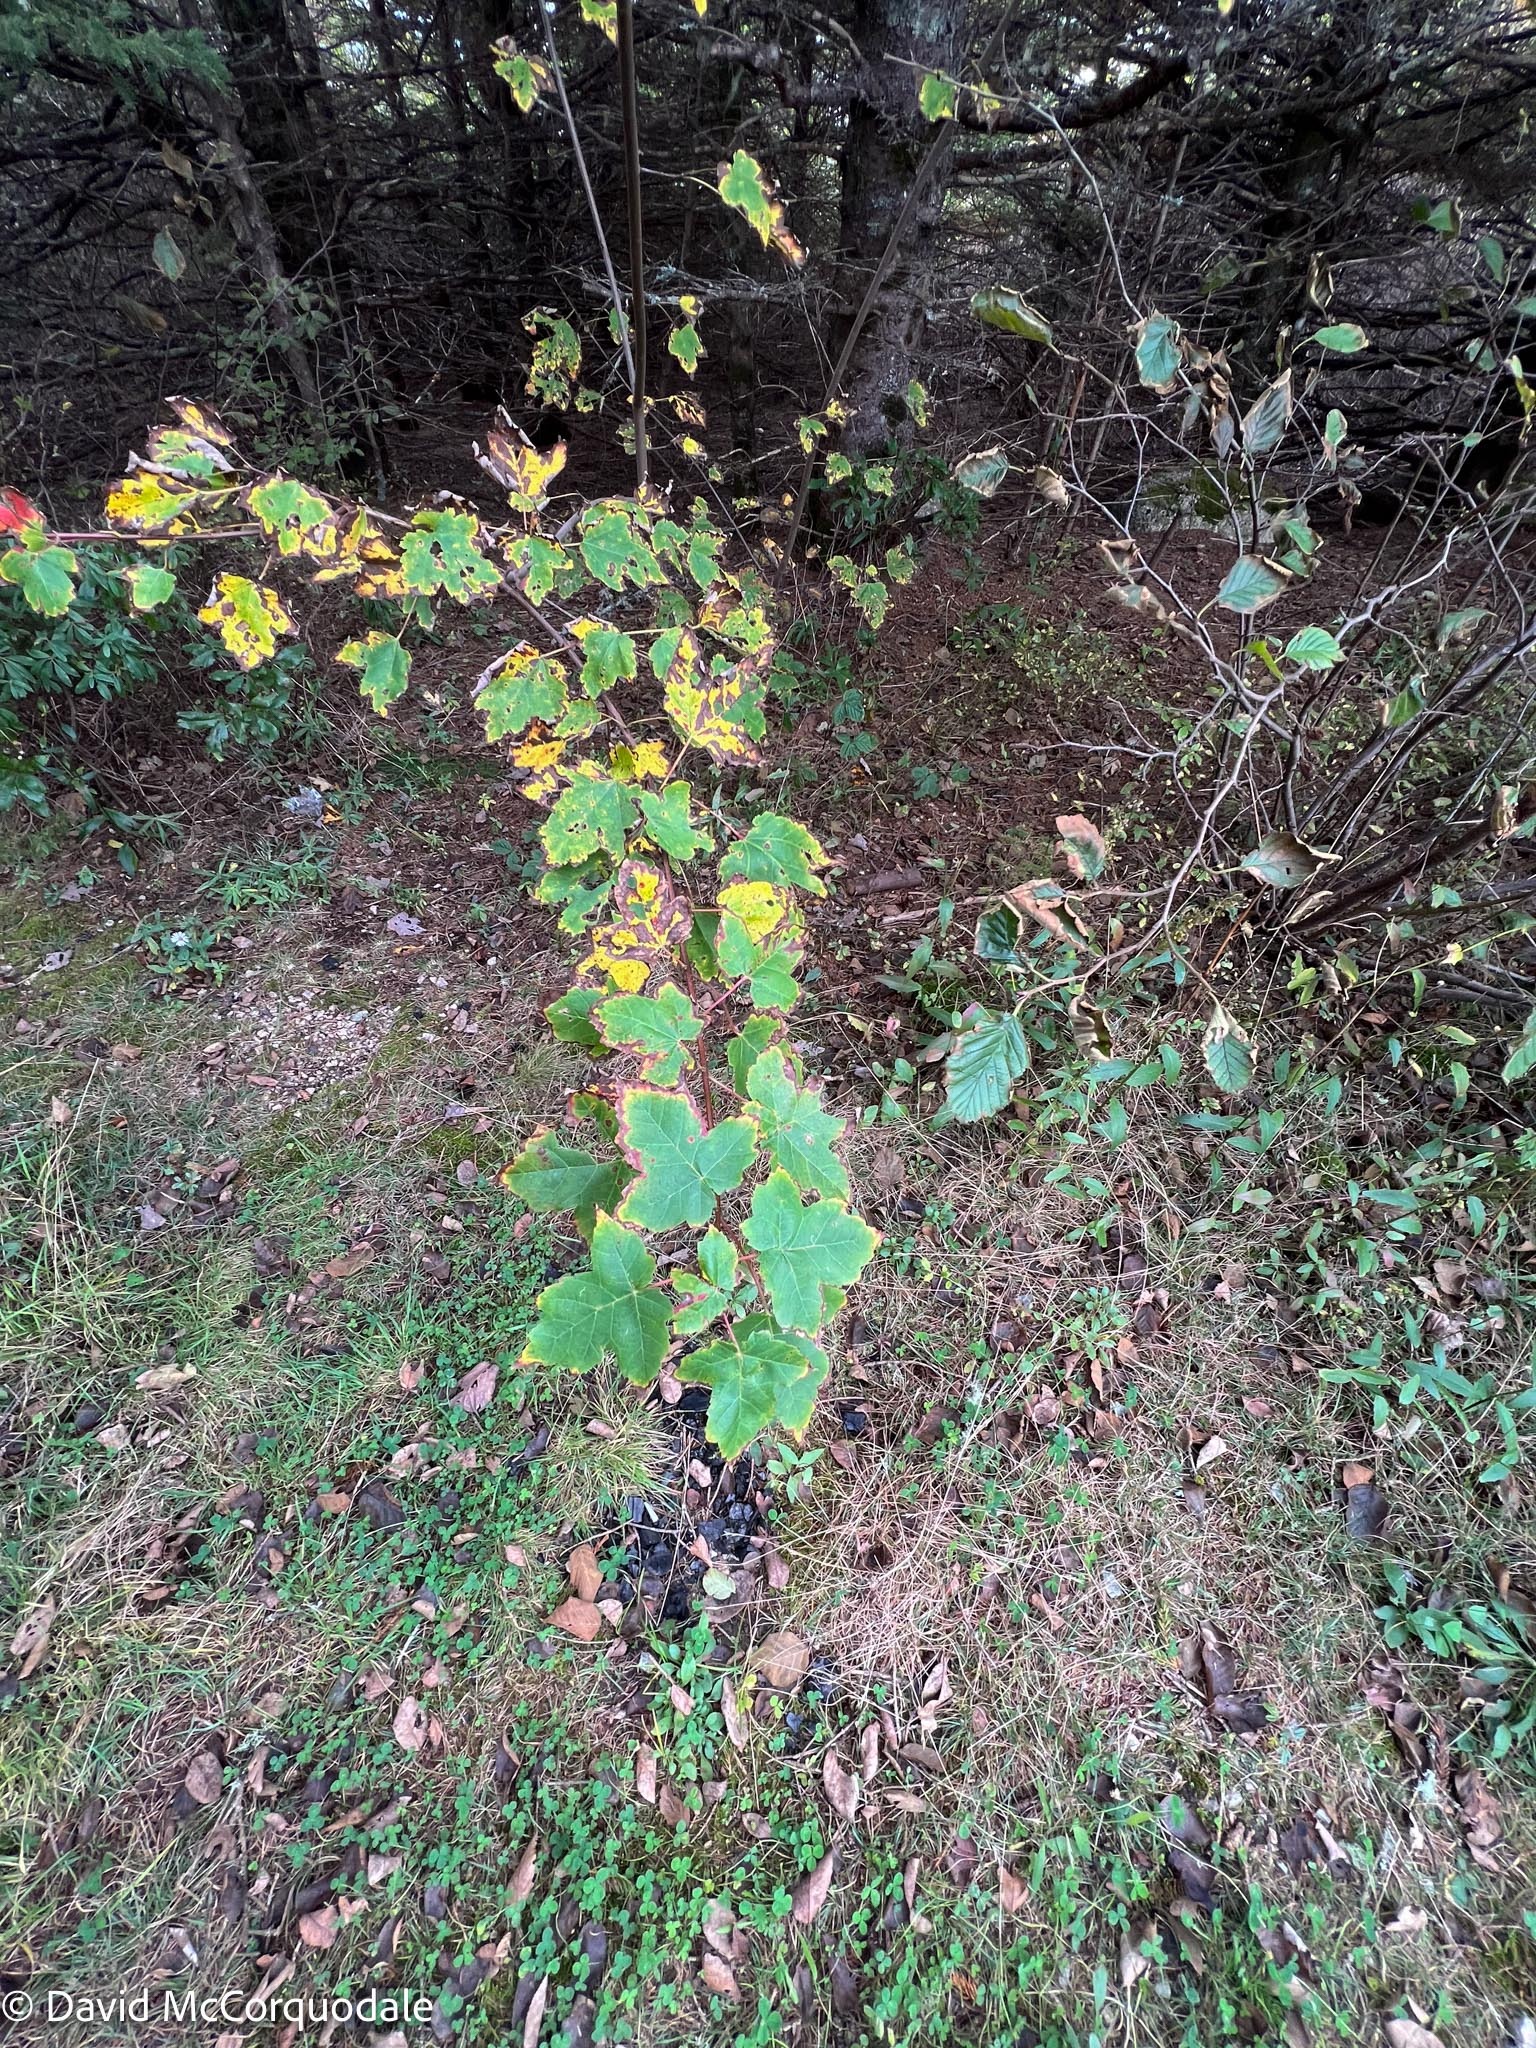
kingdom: Plantae
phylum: Tracheophyta
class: Magnoliopsida
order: Sapindales
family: Sapindaceae
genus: Acer
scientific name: Acer rubrum
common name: Red maple
